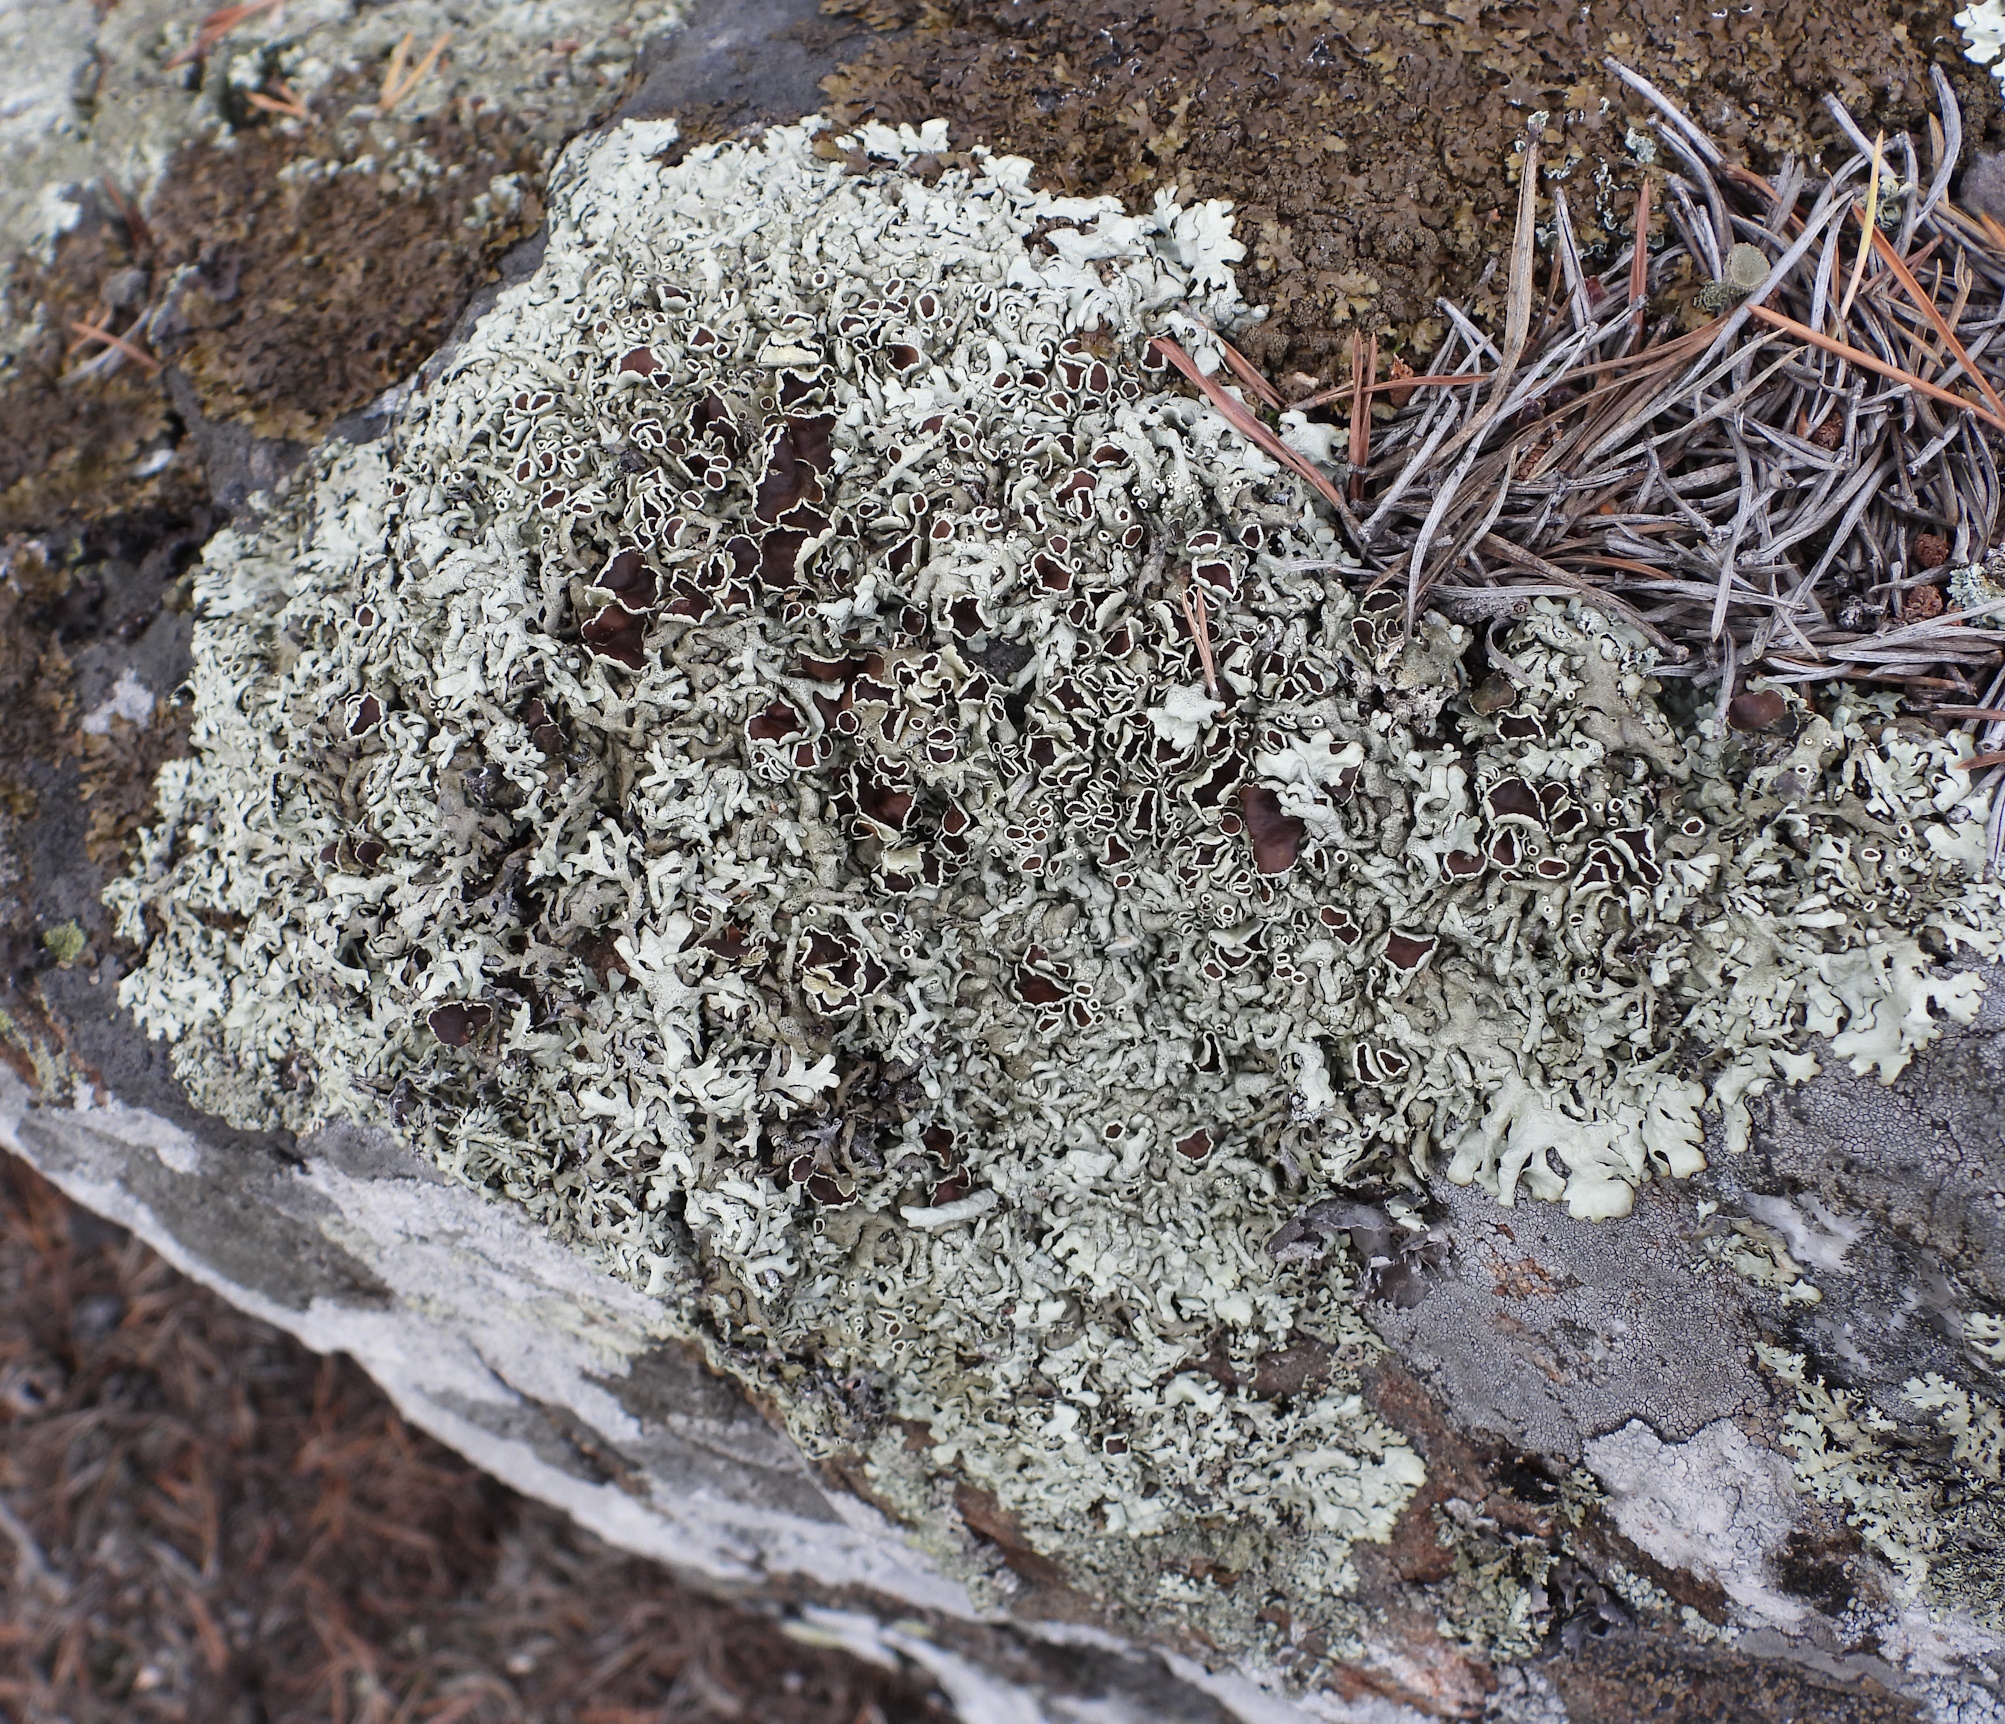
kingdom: Fungi
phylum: Ascomycota
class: Lecanoromycetes
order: Lecanorales
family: Parmeliaceae
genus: Xanthoparmelia
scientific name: Xanthoparmelia stenophylla
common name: Shingled rock shield
